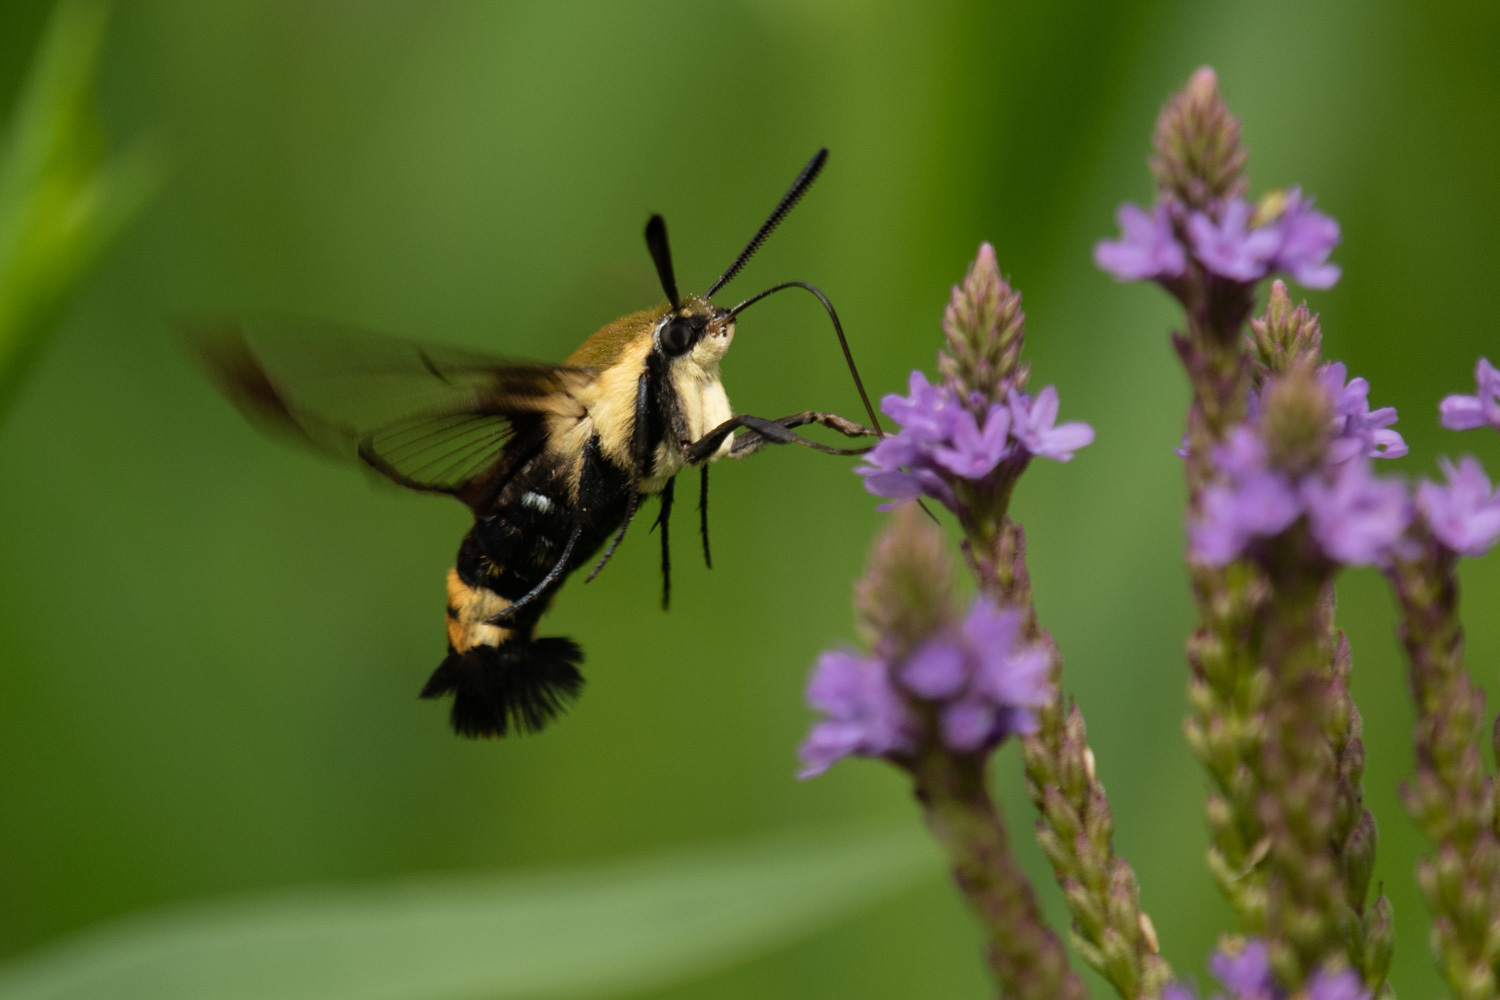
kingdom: Animalia
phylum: Arthropoda
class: Insecta
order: Lepidoptera
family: Sphingidae
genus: Hemaris
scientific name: Hemaris diffinis
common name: Bumblebee moth
